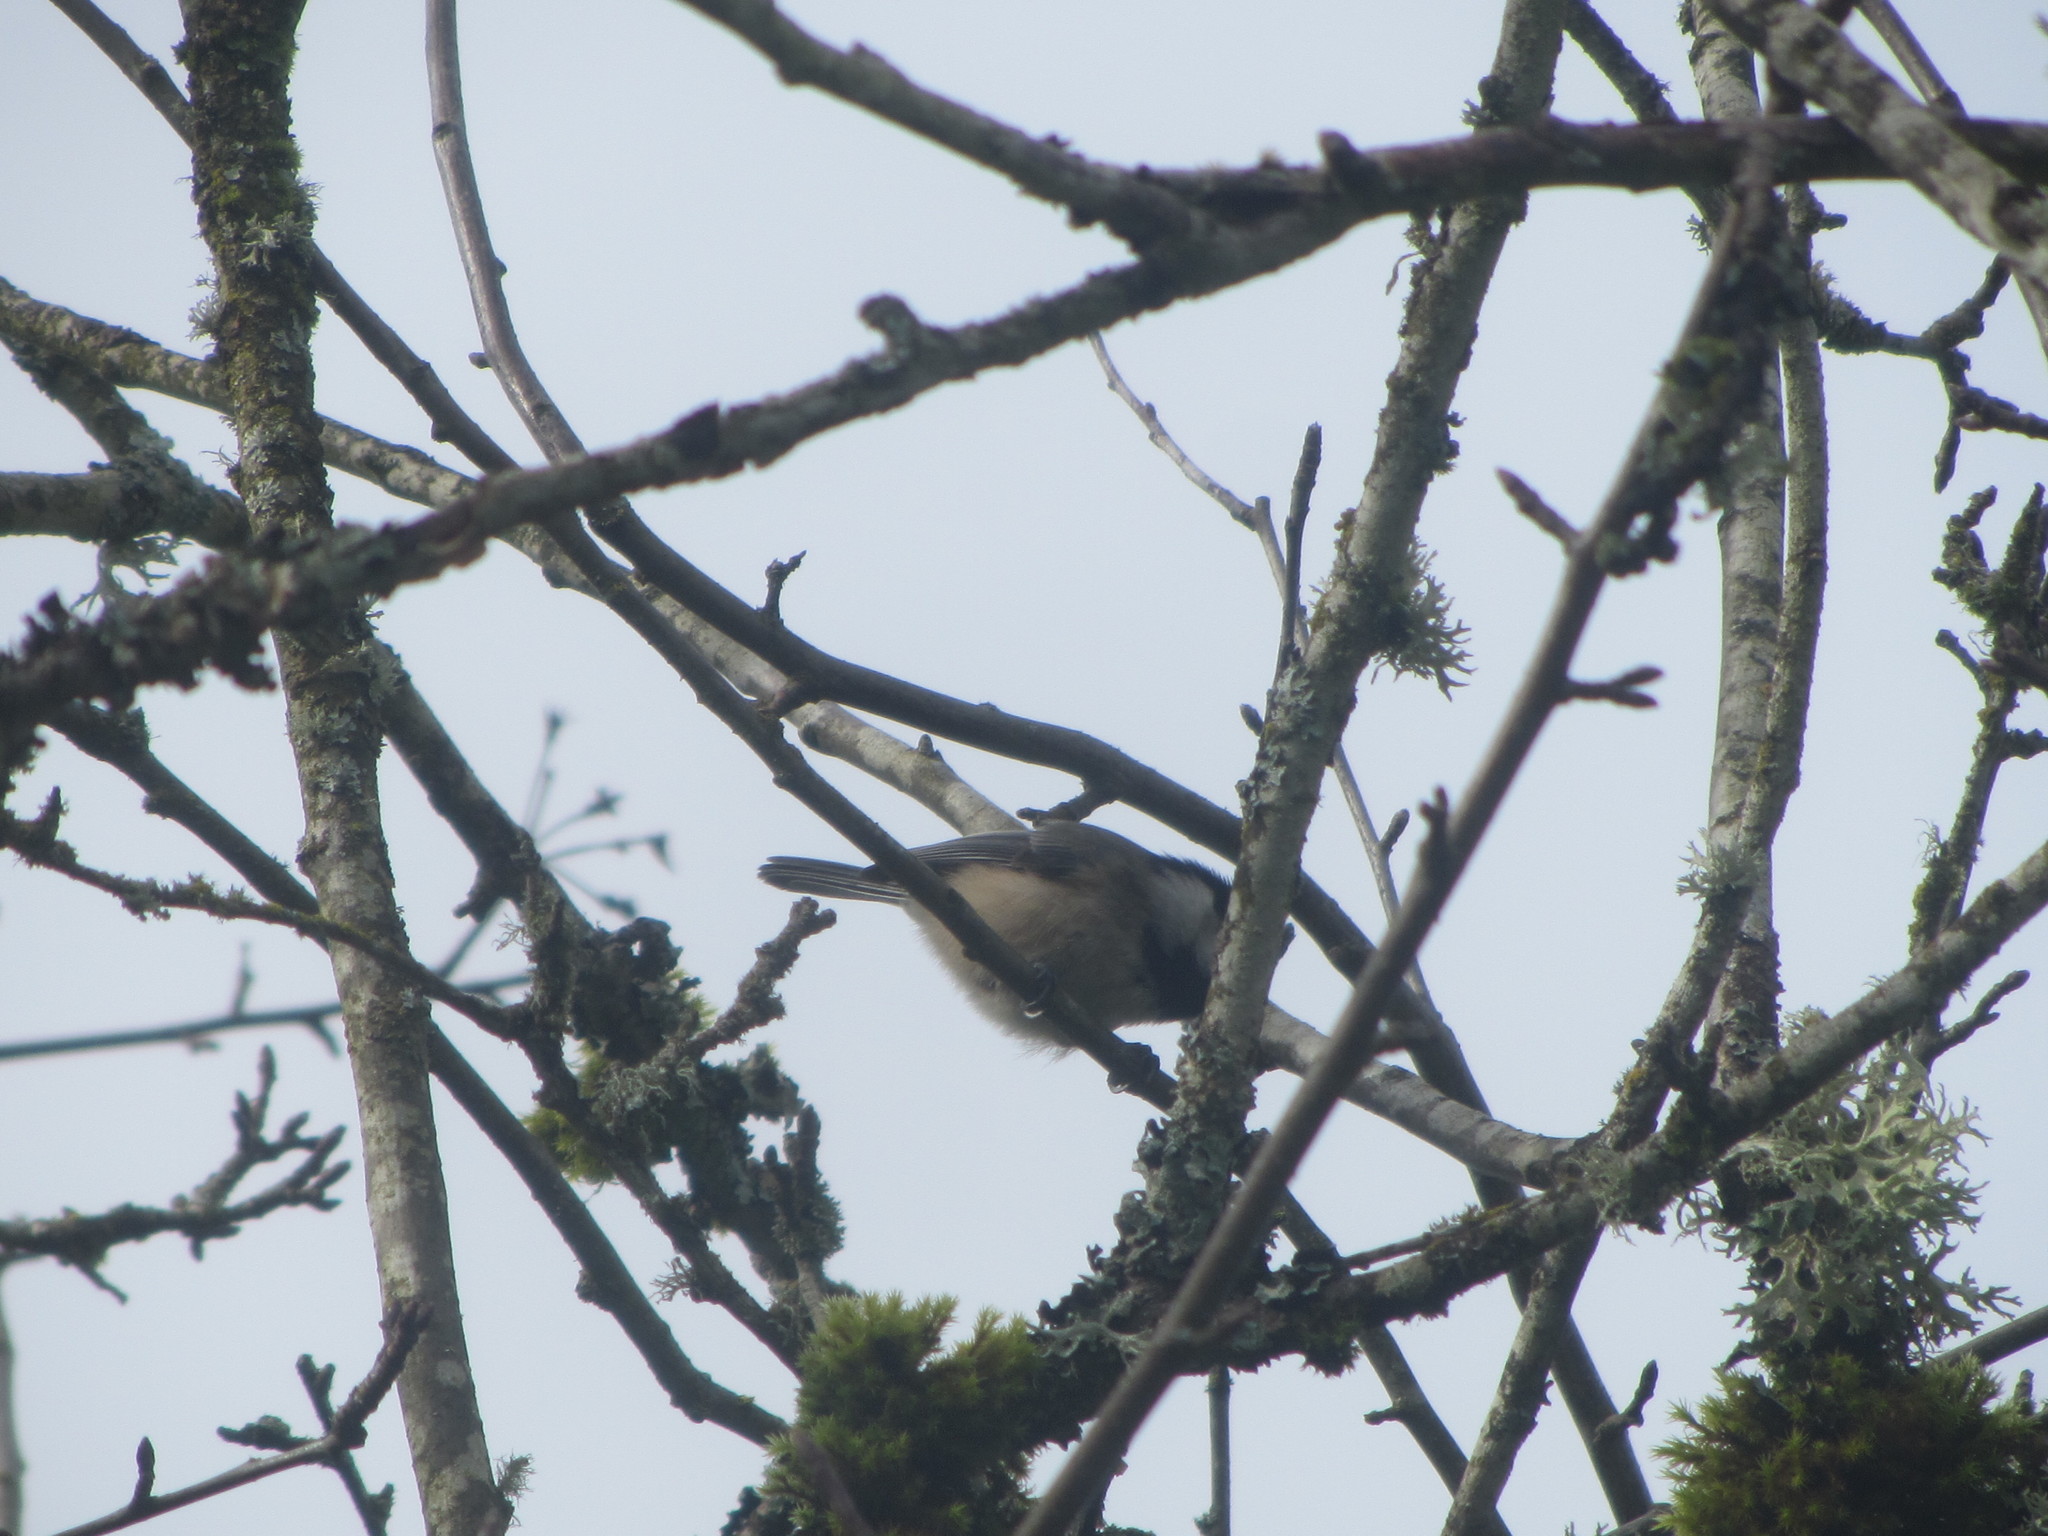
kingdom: Animalia
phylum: Chordata
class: Aves
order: Passeriformes
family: Paridae
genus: Poecile
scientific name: Poecile atricapillus
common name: Black-capped chickadee
